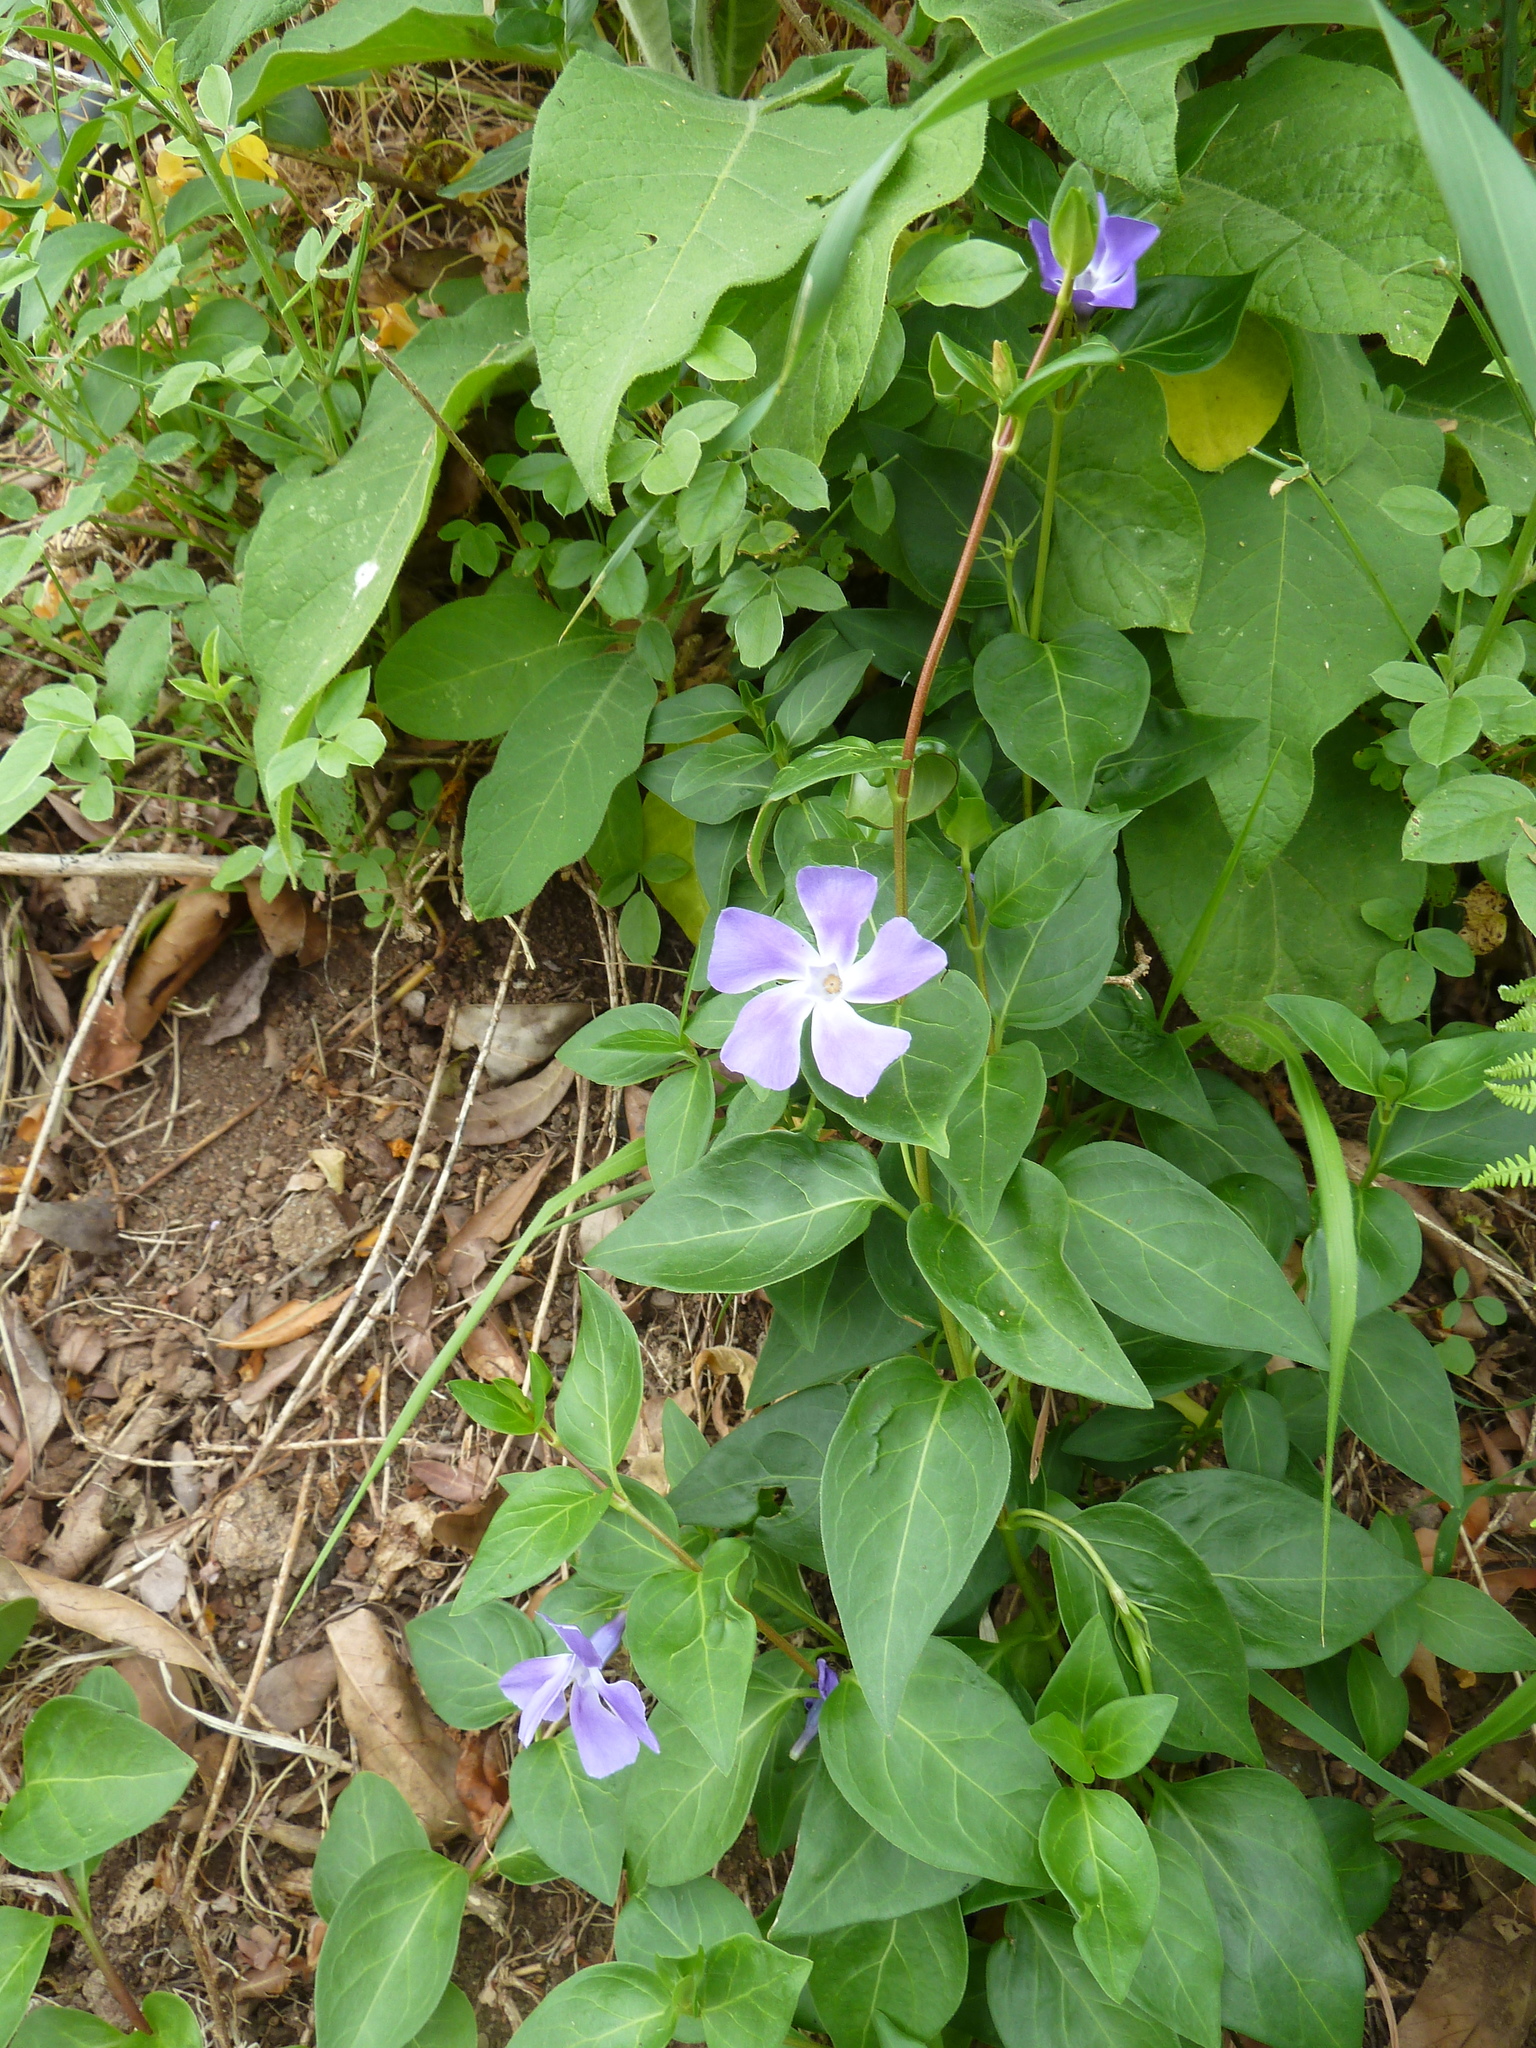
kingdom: Plantae
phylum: Tracheophyta
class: Magnoliopsida
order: Gentianales
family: Apocynaceae
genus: Vinca
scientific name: Vinca major
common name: Greater periwinkle
